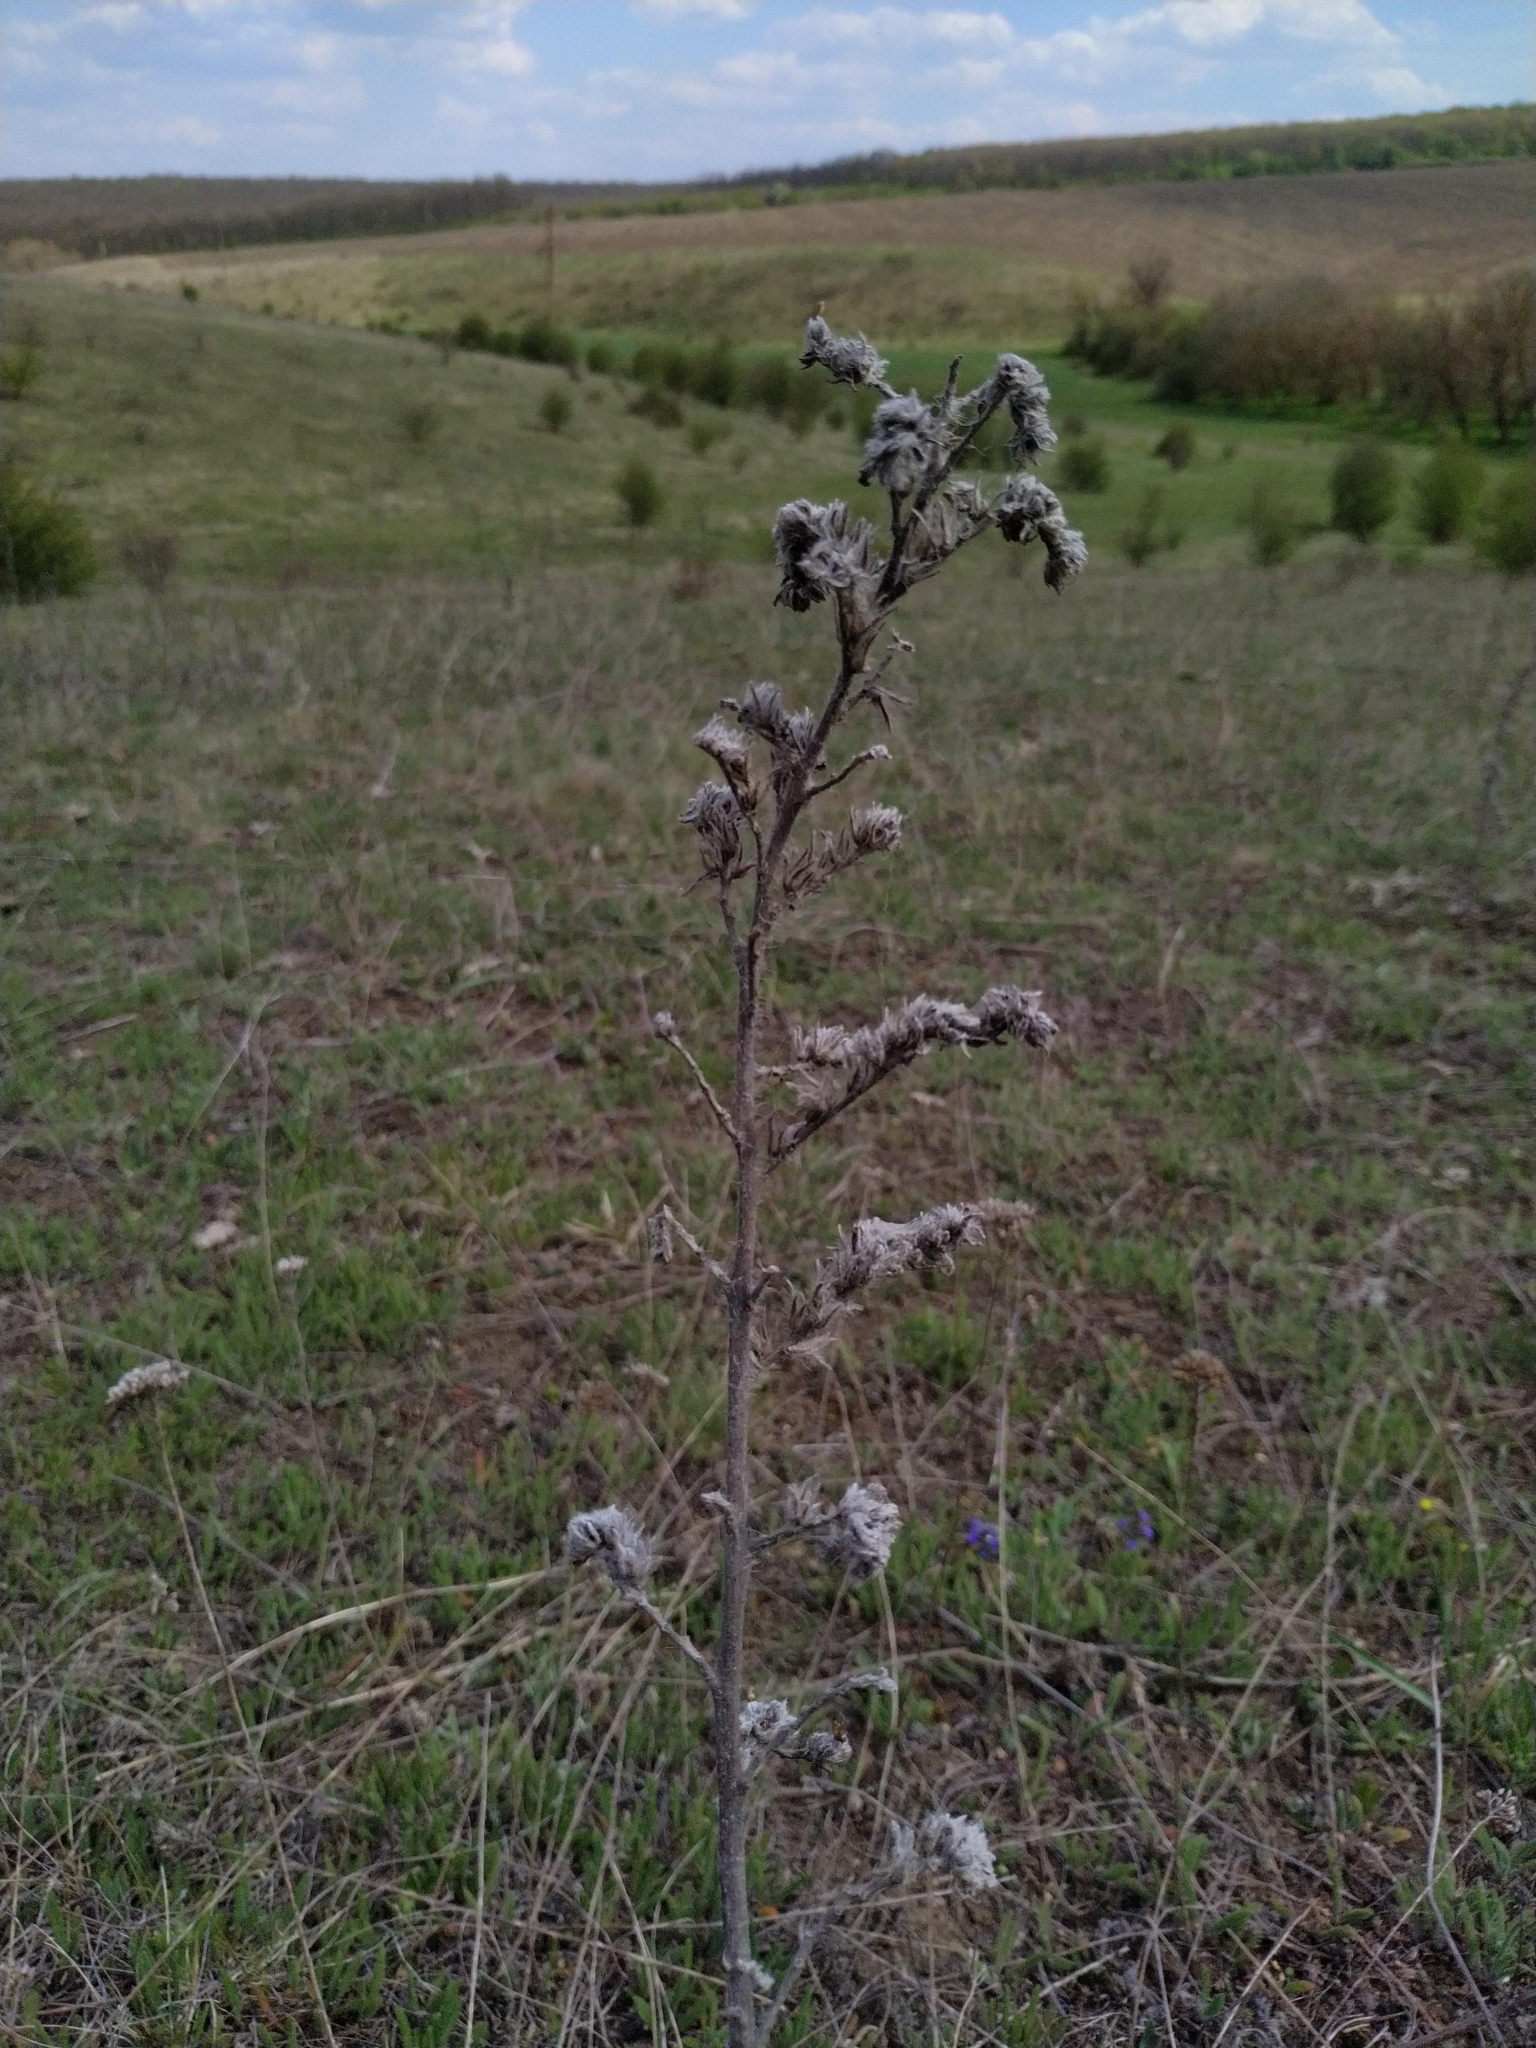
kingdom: Plantae
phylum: Tracheophyta
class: Magnoliopsida
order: Boraginales
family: Boraginaceae
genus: Echium
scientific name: Echium vulgare
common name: Common viper's bugloss
